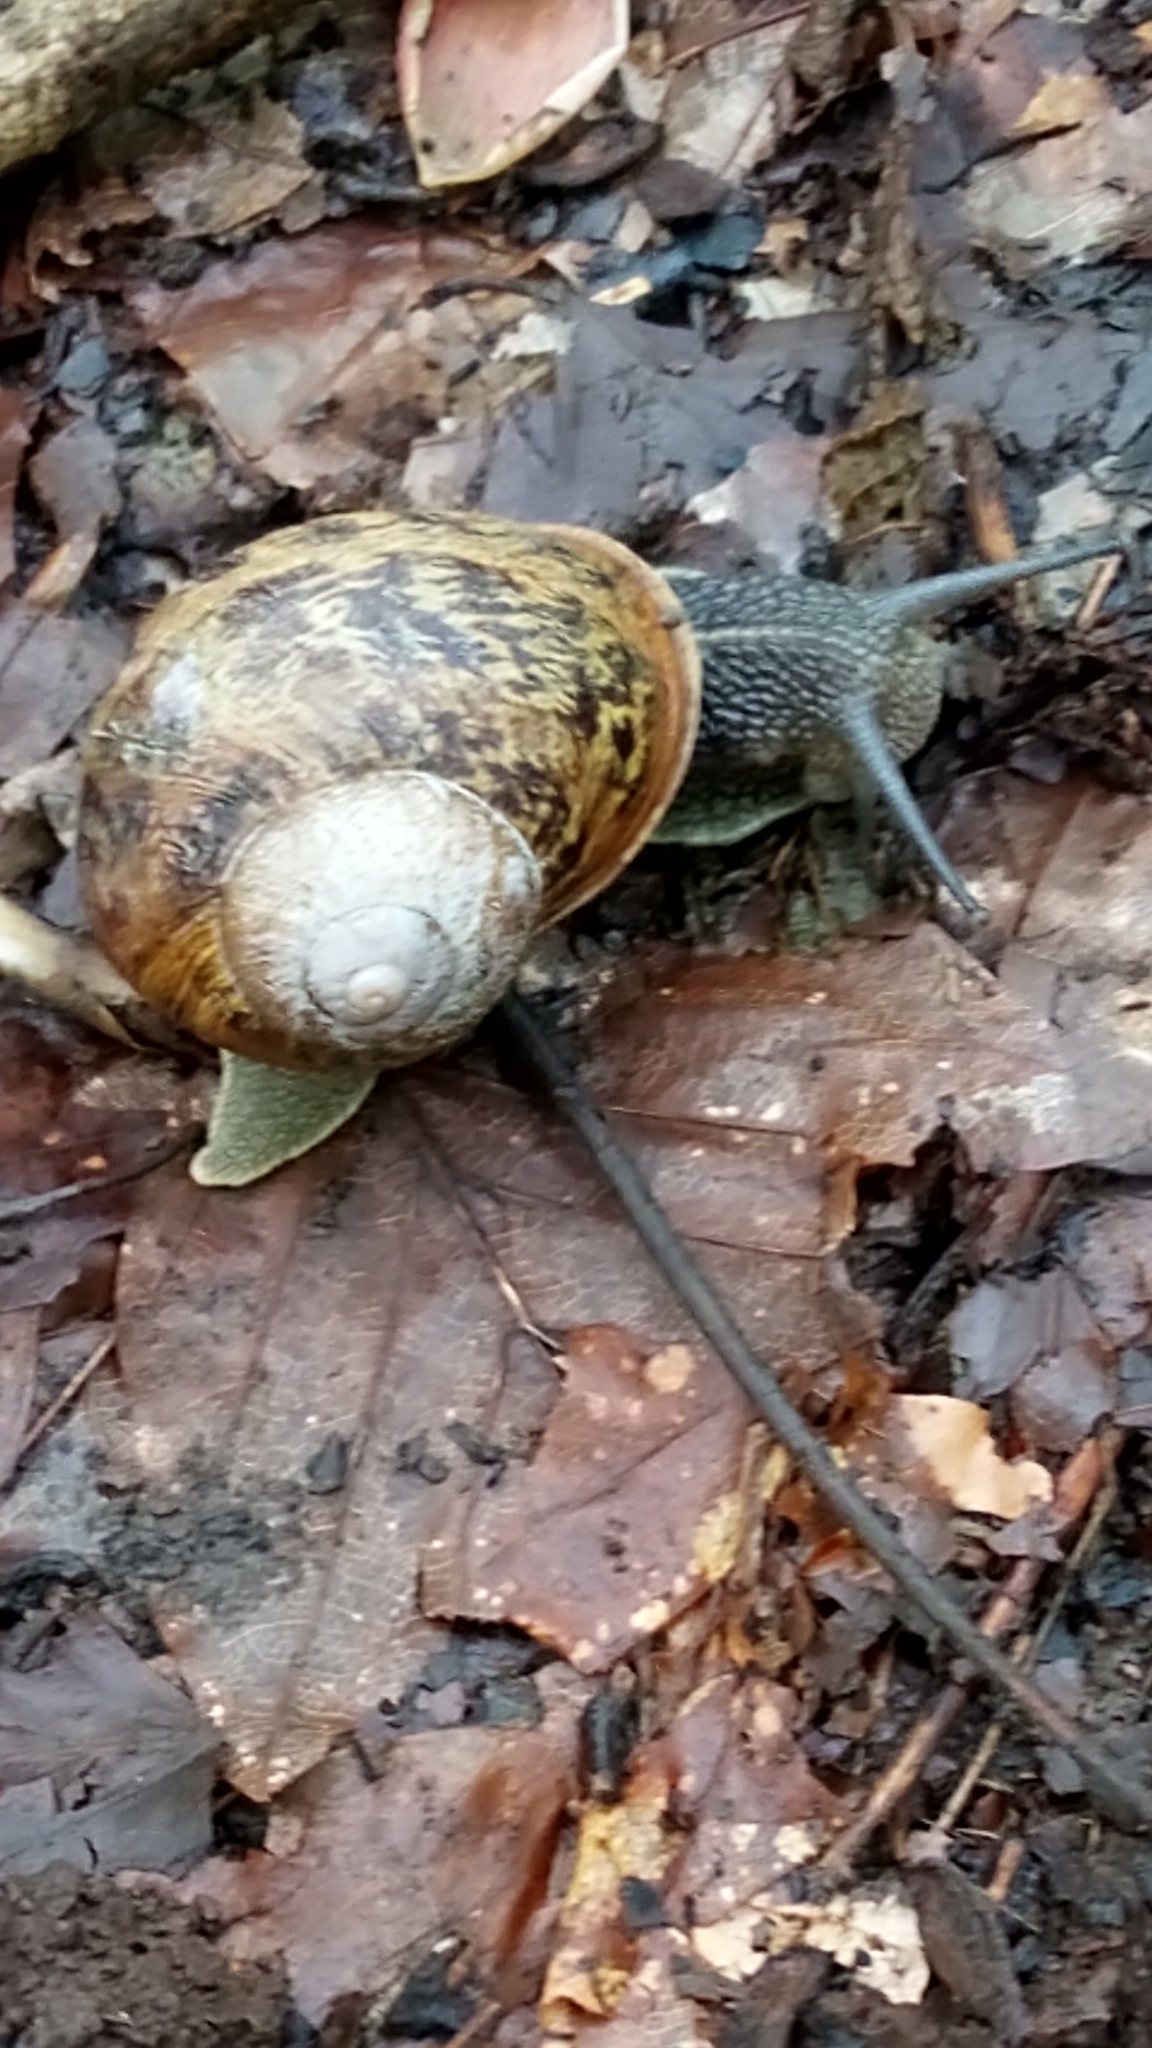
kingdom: Animalia
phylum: Mollusca
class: Gastropoda
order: Stylommatophora
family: Helicidae
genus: Cornu
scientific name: Cornu aspersum
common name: Brown garden snail
